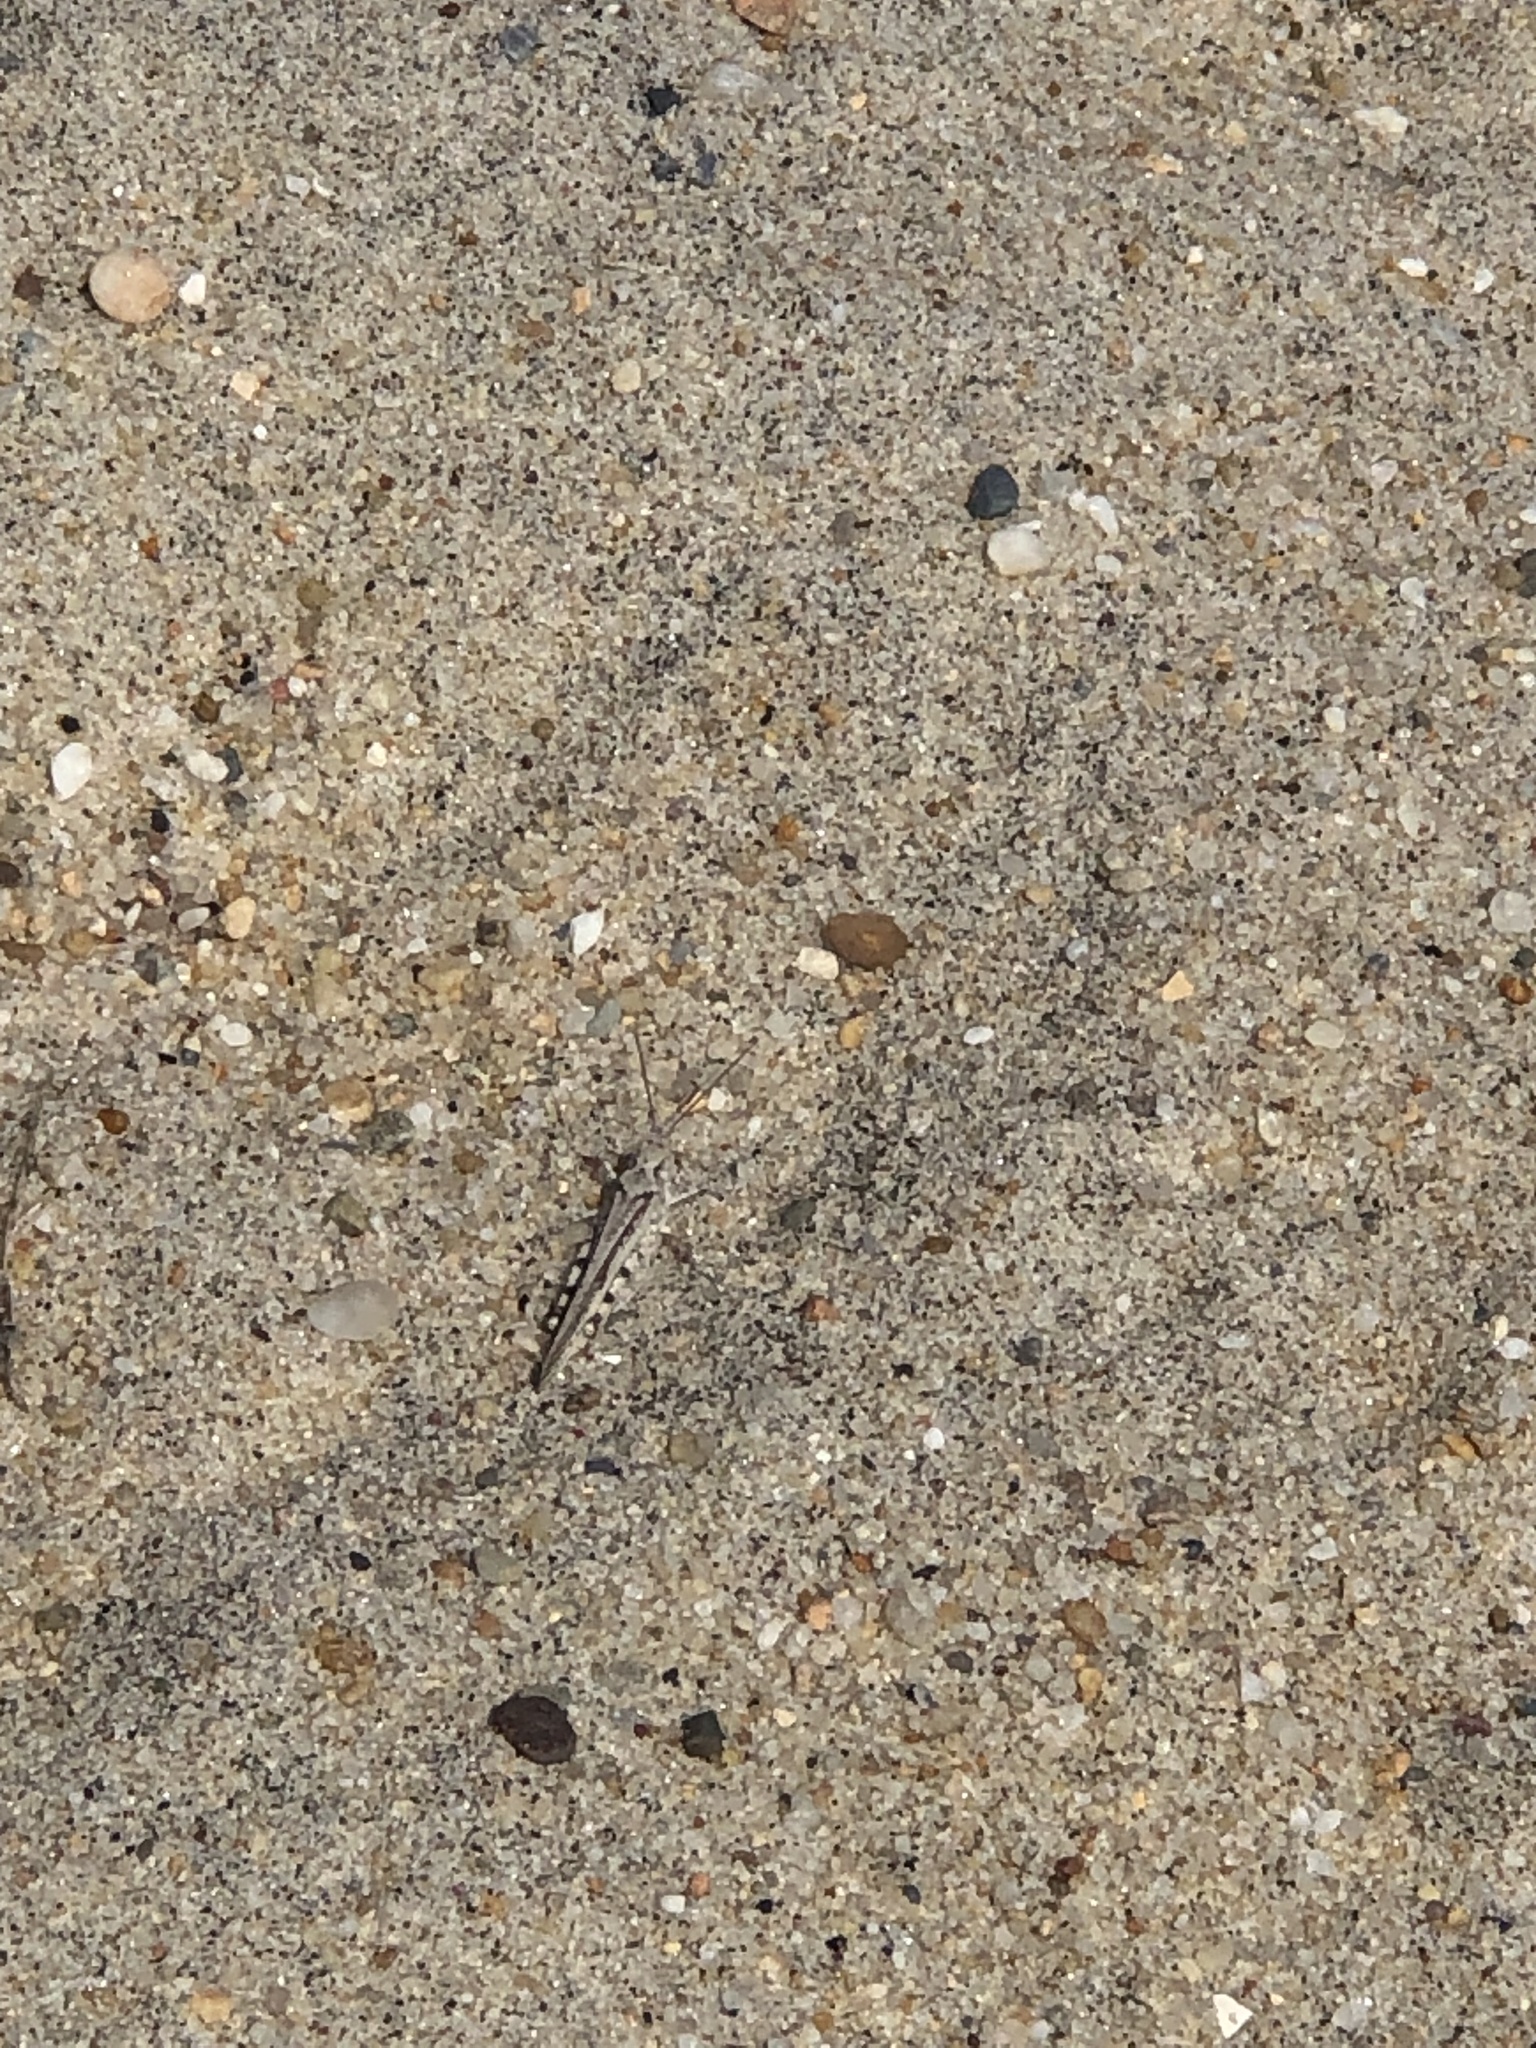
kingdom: Animalia
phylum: Arthropoda
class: Insecta
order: Orthoptera
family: Acrididae
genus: Trimerotropis
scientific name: Trimerotropis maritima
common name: Seaside locust
